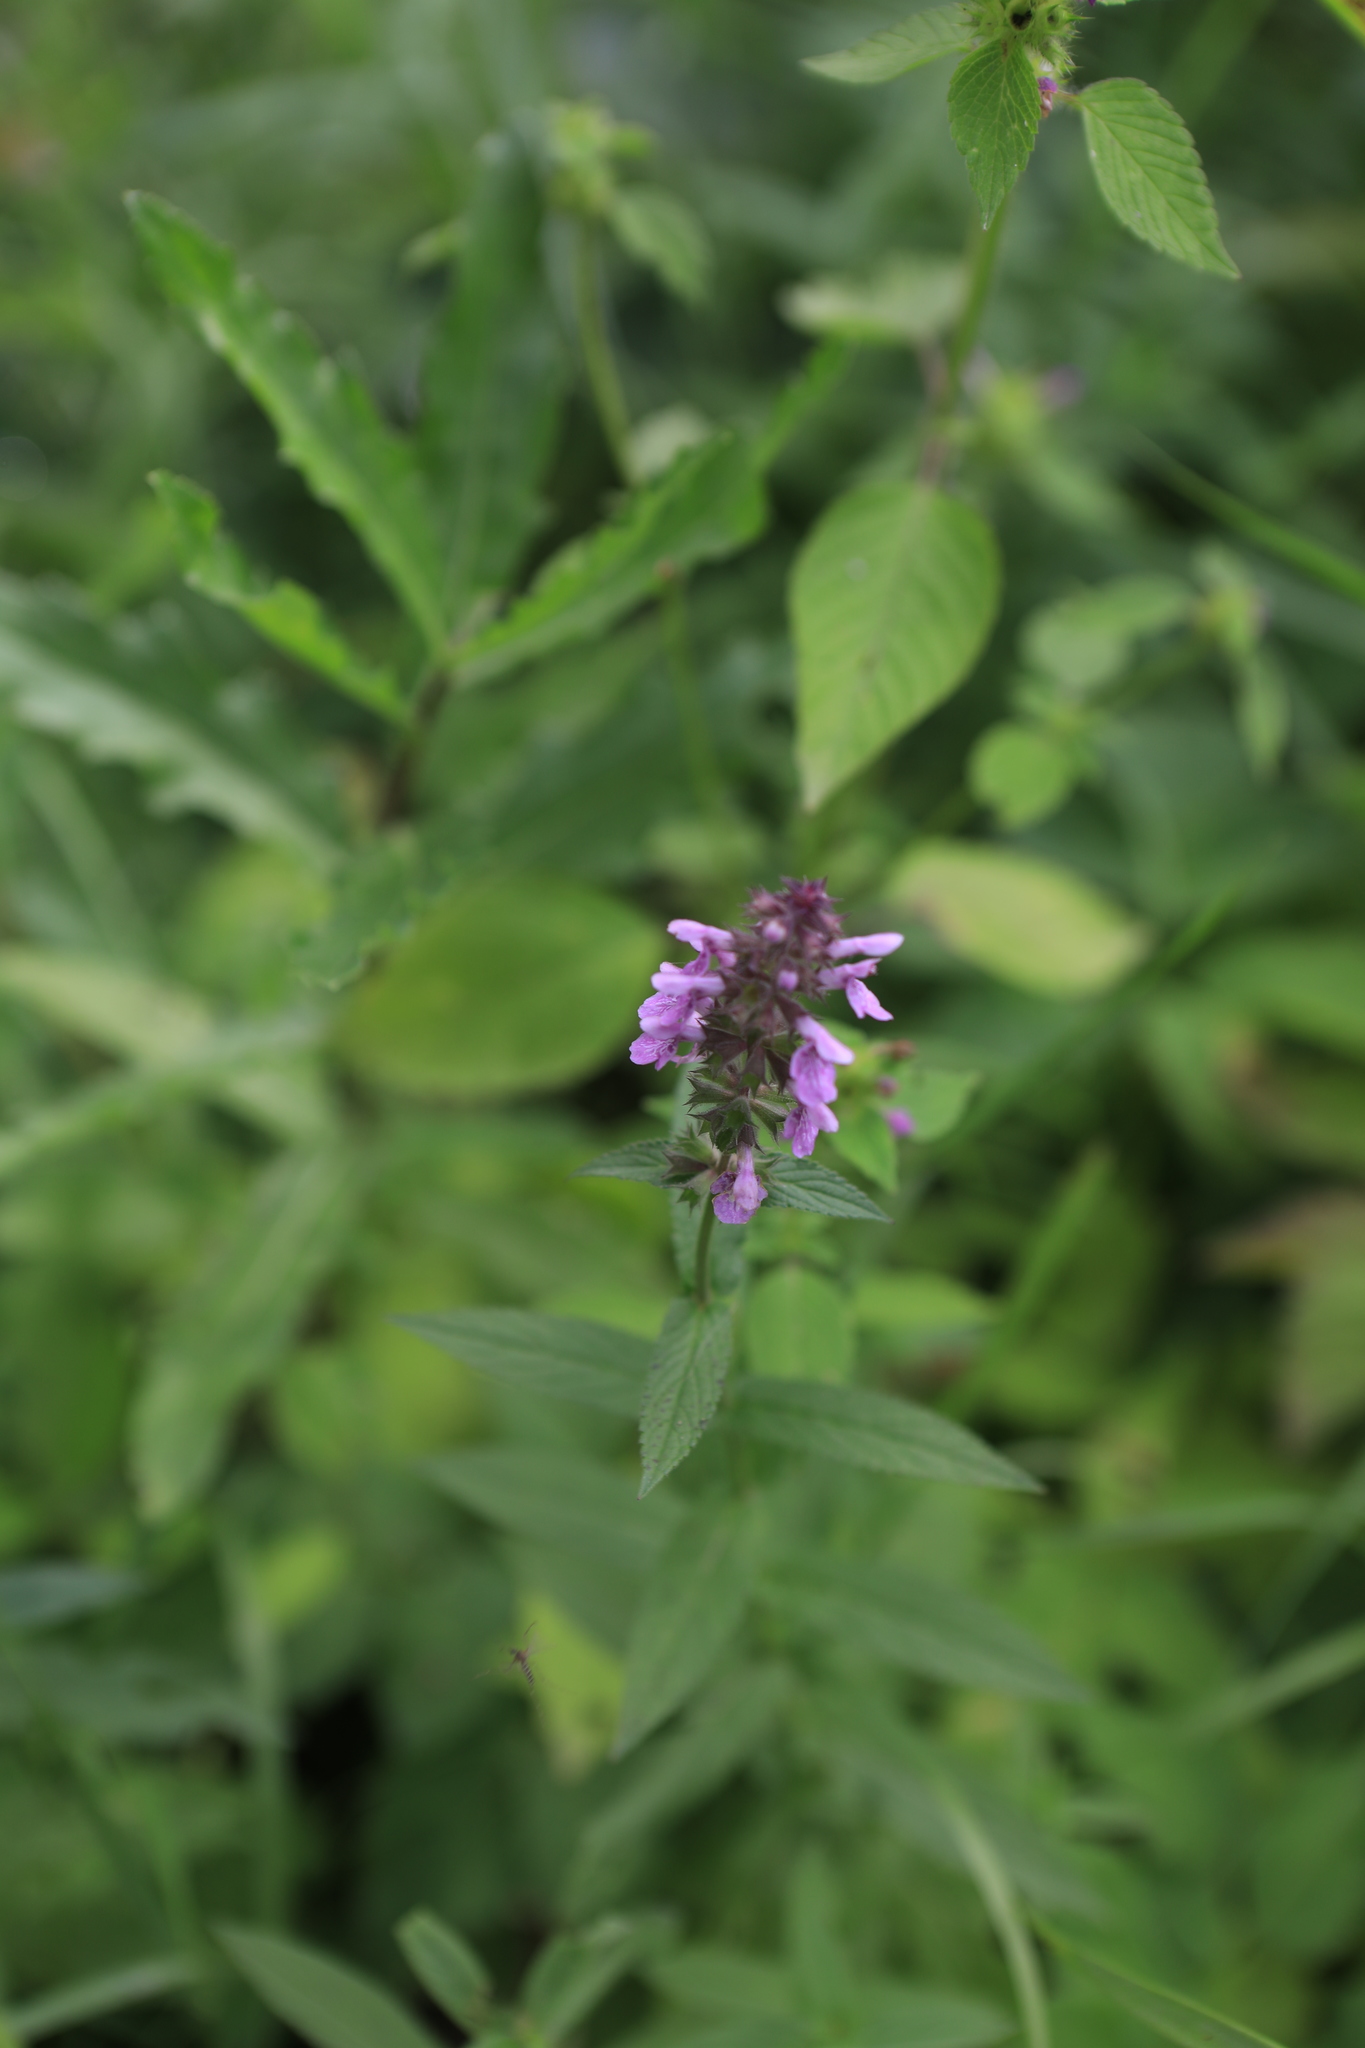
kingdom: Plantae
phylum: Tracheophyta
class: Magnoliopsida
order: Lamiales
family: Lamiaceae
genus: Stachys
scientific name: Stachys palustris
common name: Marsh woundwort
